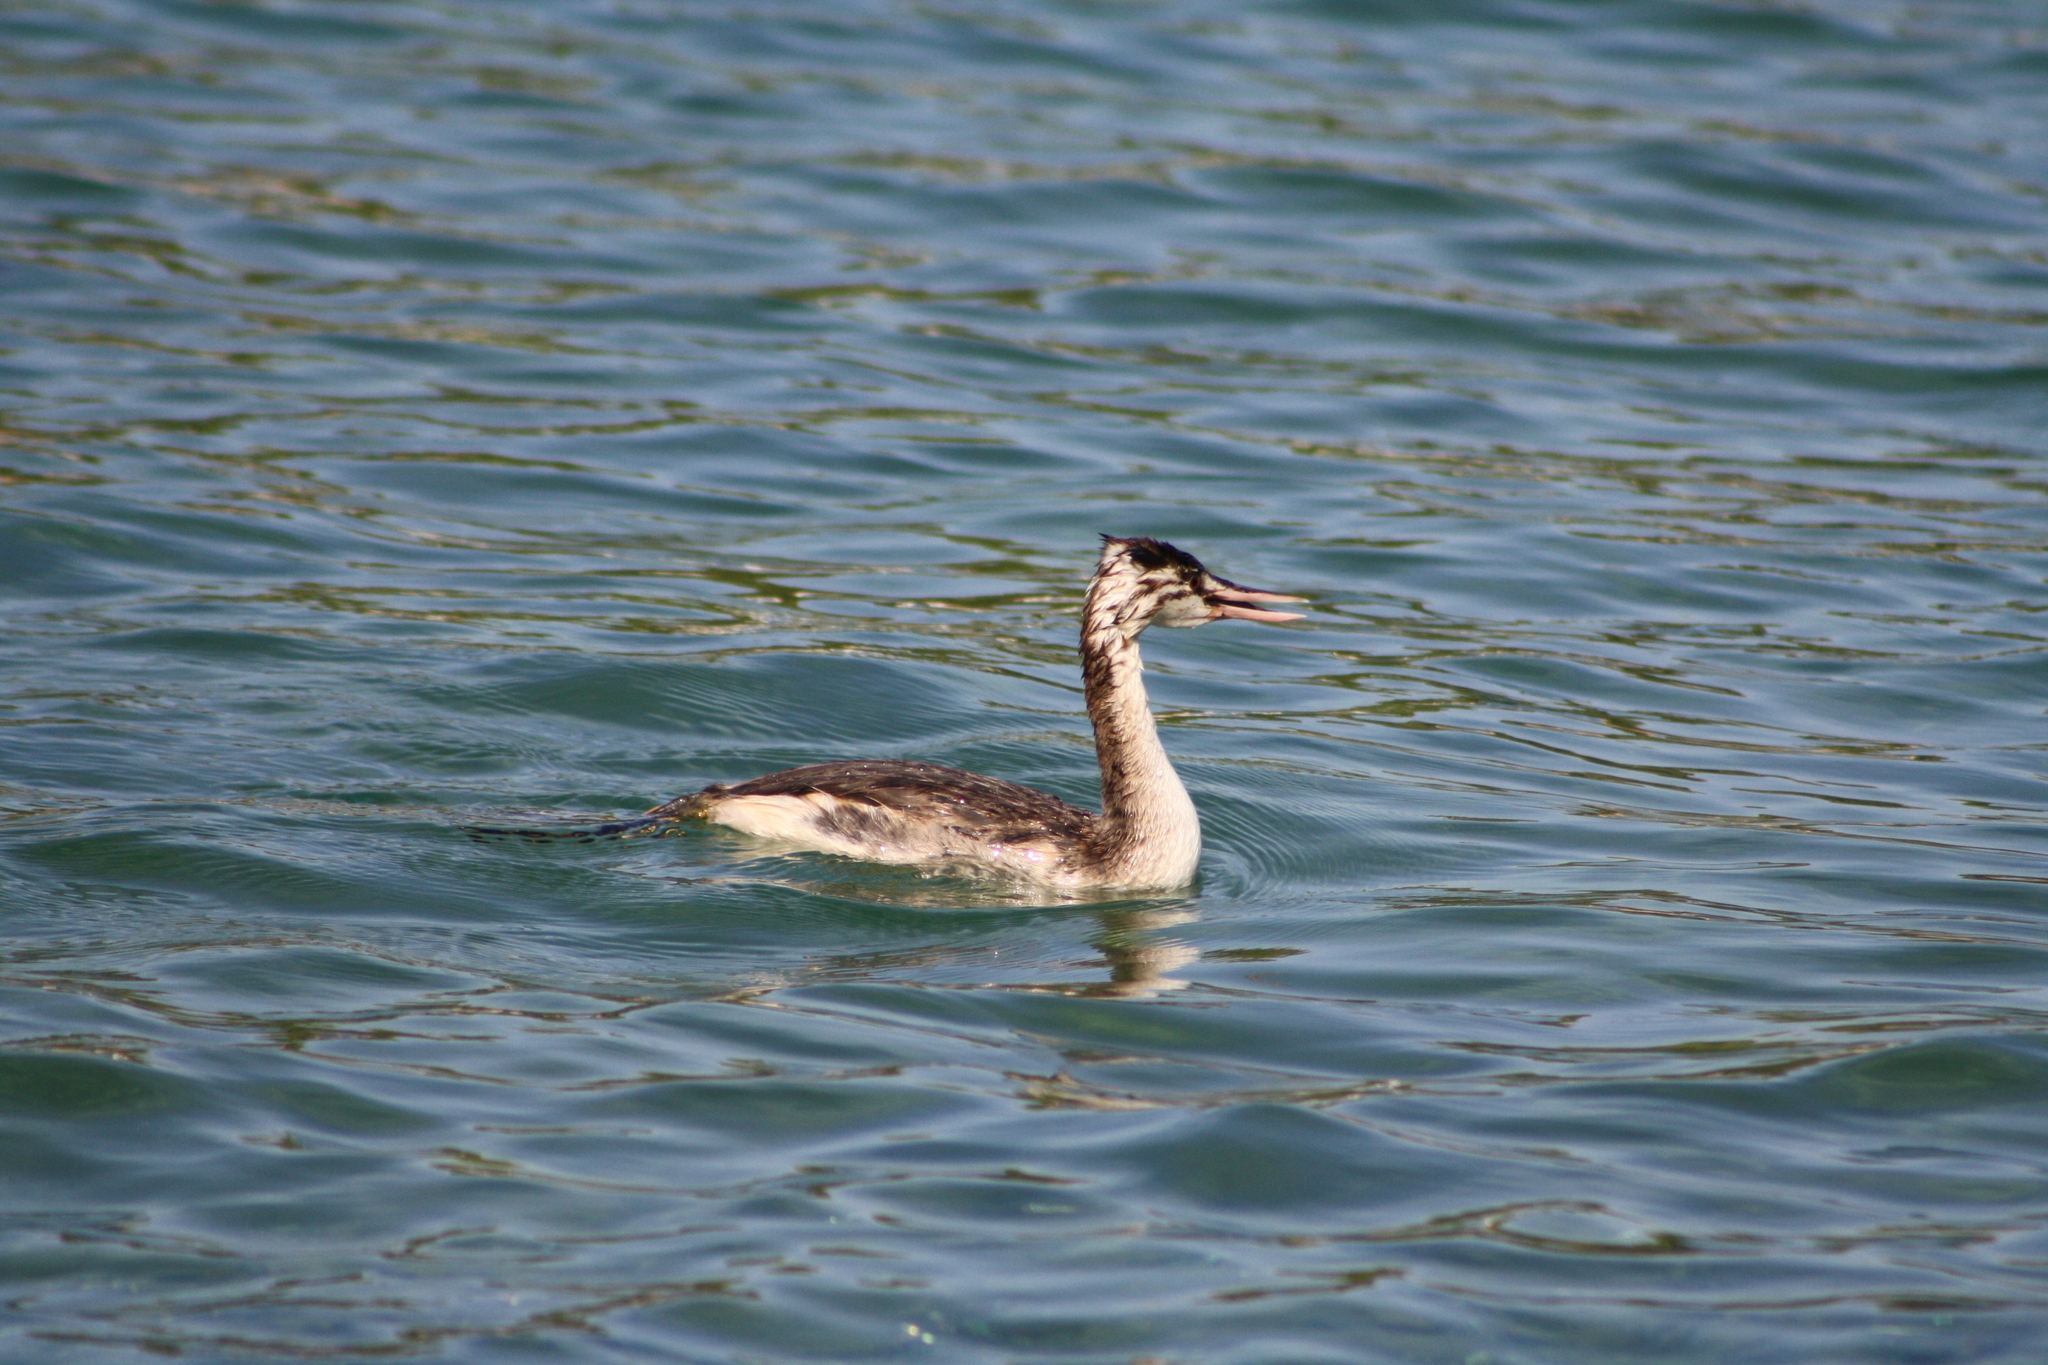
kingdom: Animalia
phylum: Chordata
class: Aves
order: Podicipediformes
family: Podicipedidae
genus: Podiceps
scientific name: Podiceps cristatus
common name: Great crested grebe
